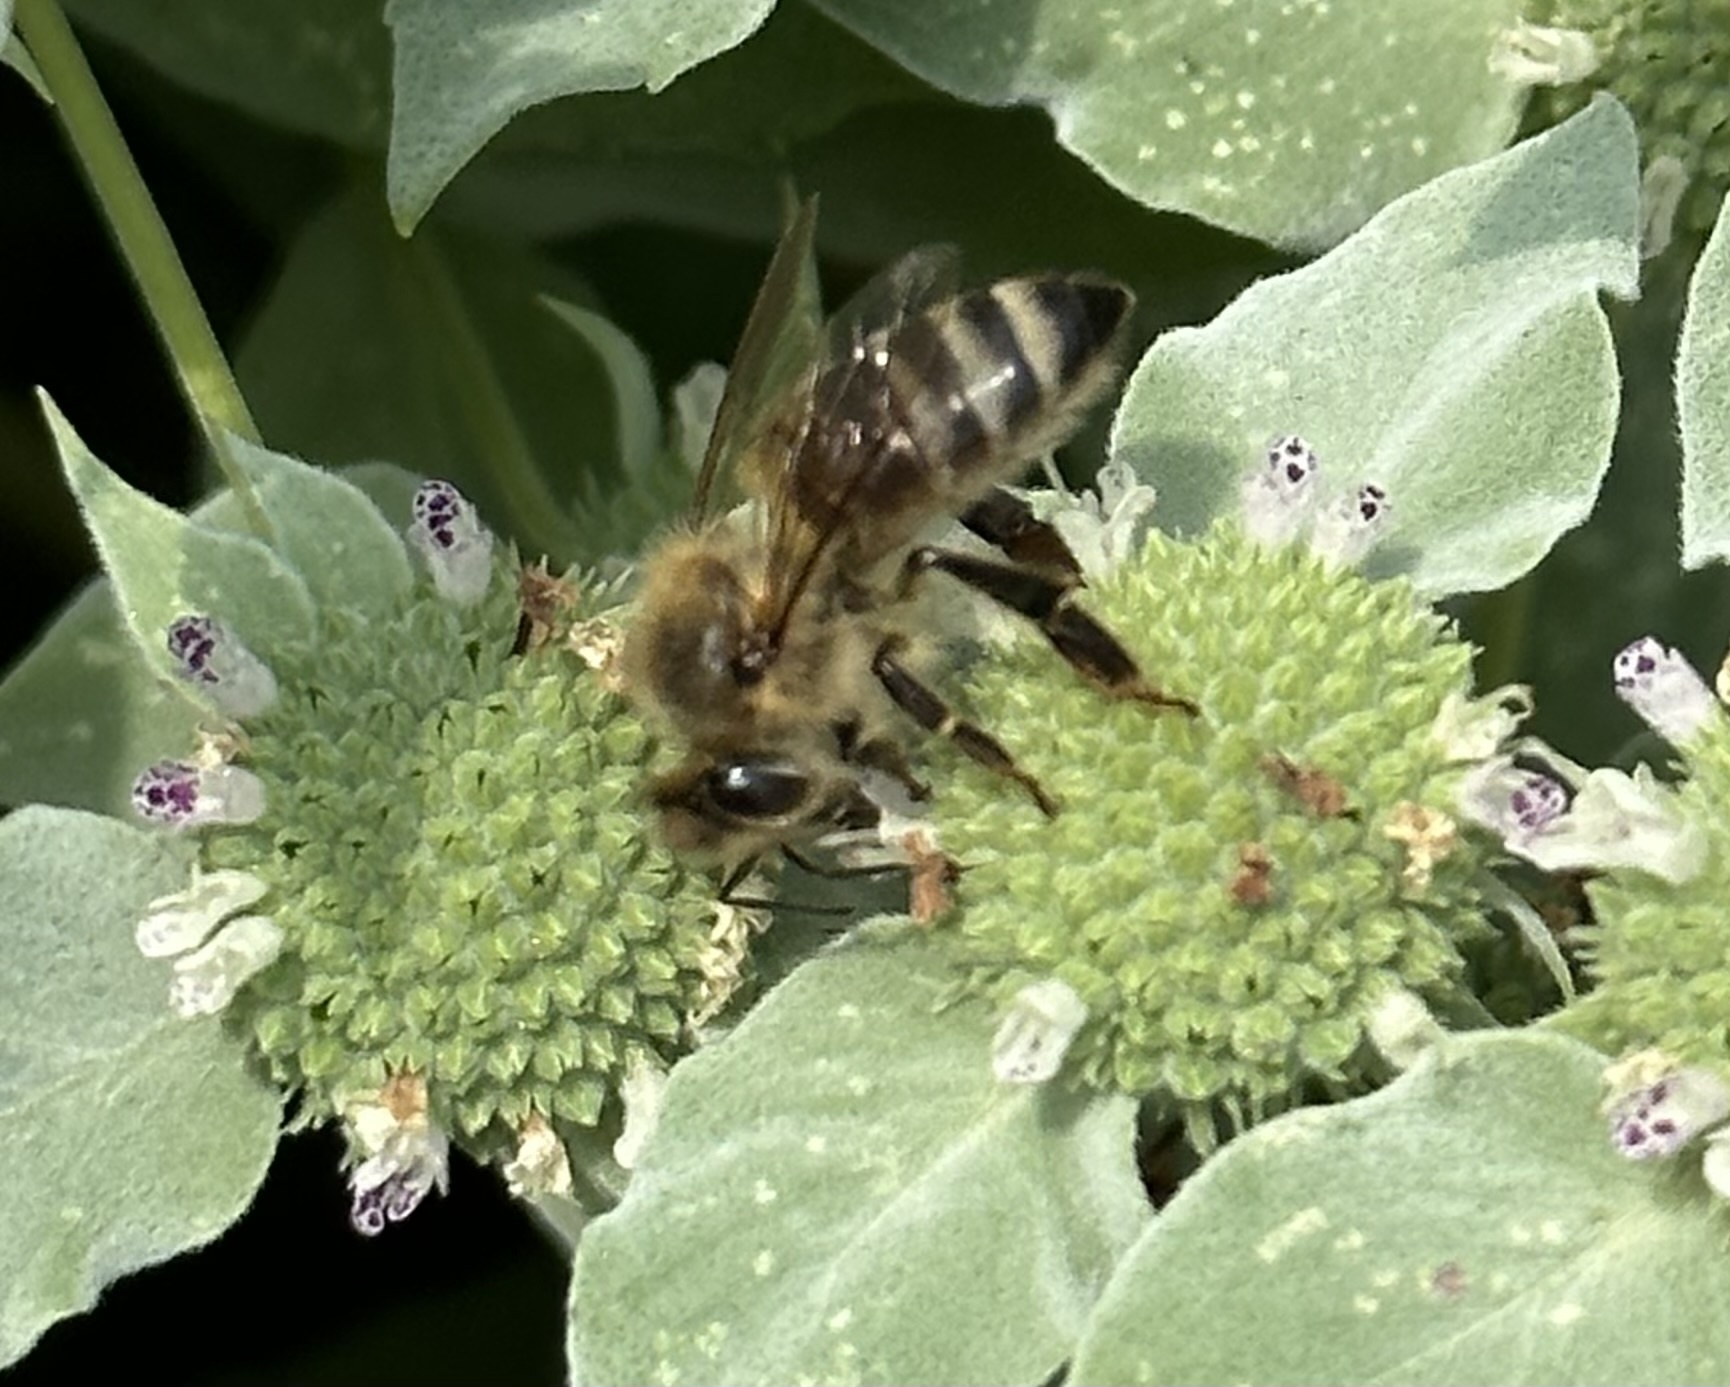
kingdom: Animalia
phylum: Arthropoda
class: Insecta
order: Hymenoptera
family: Apidae
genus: Apis
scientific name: Apis mellifera
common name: Honey bee
